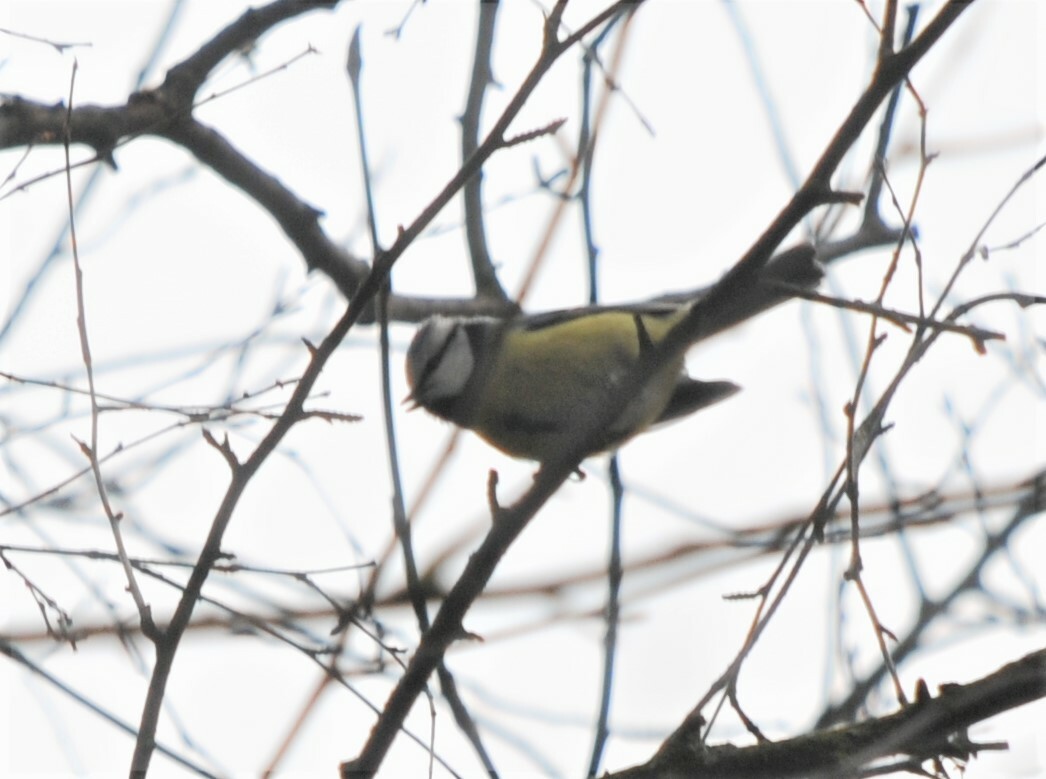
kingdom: Animalia
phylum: Chordata
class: Aves
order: Passeriformes
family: Paridae
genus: Cyanistes
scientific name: Cyanistes caeruleus
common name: Eurasian blue tit
